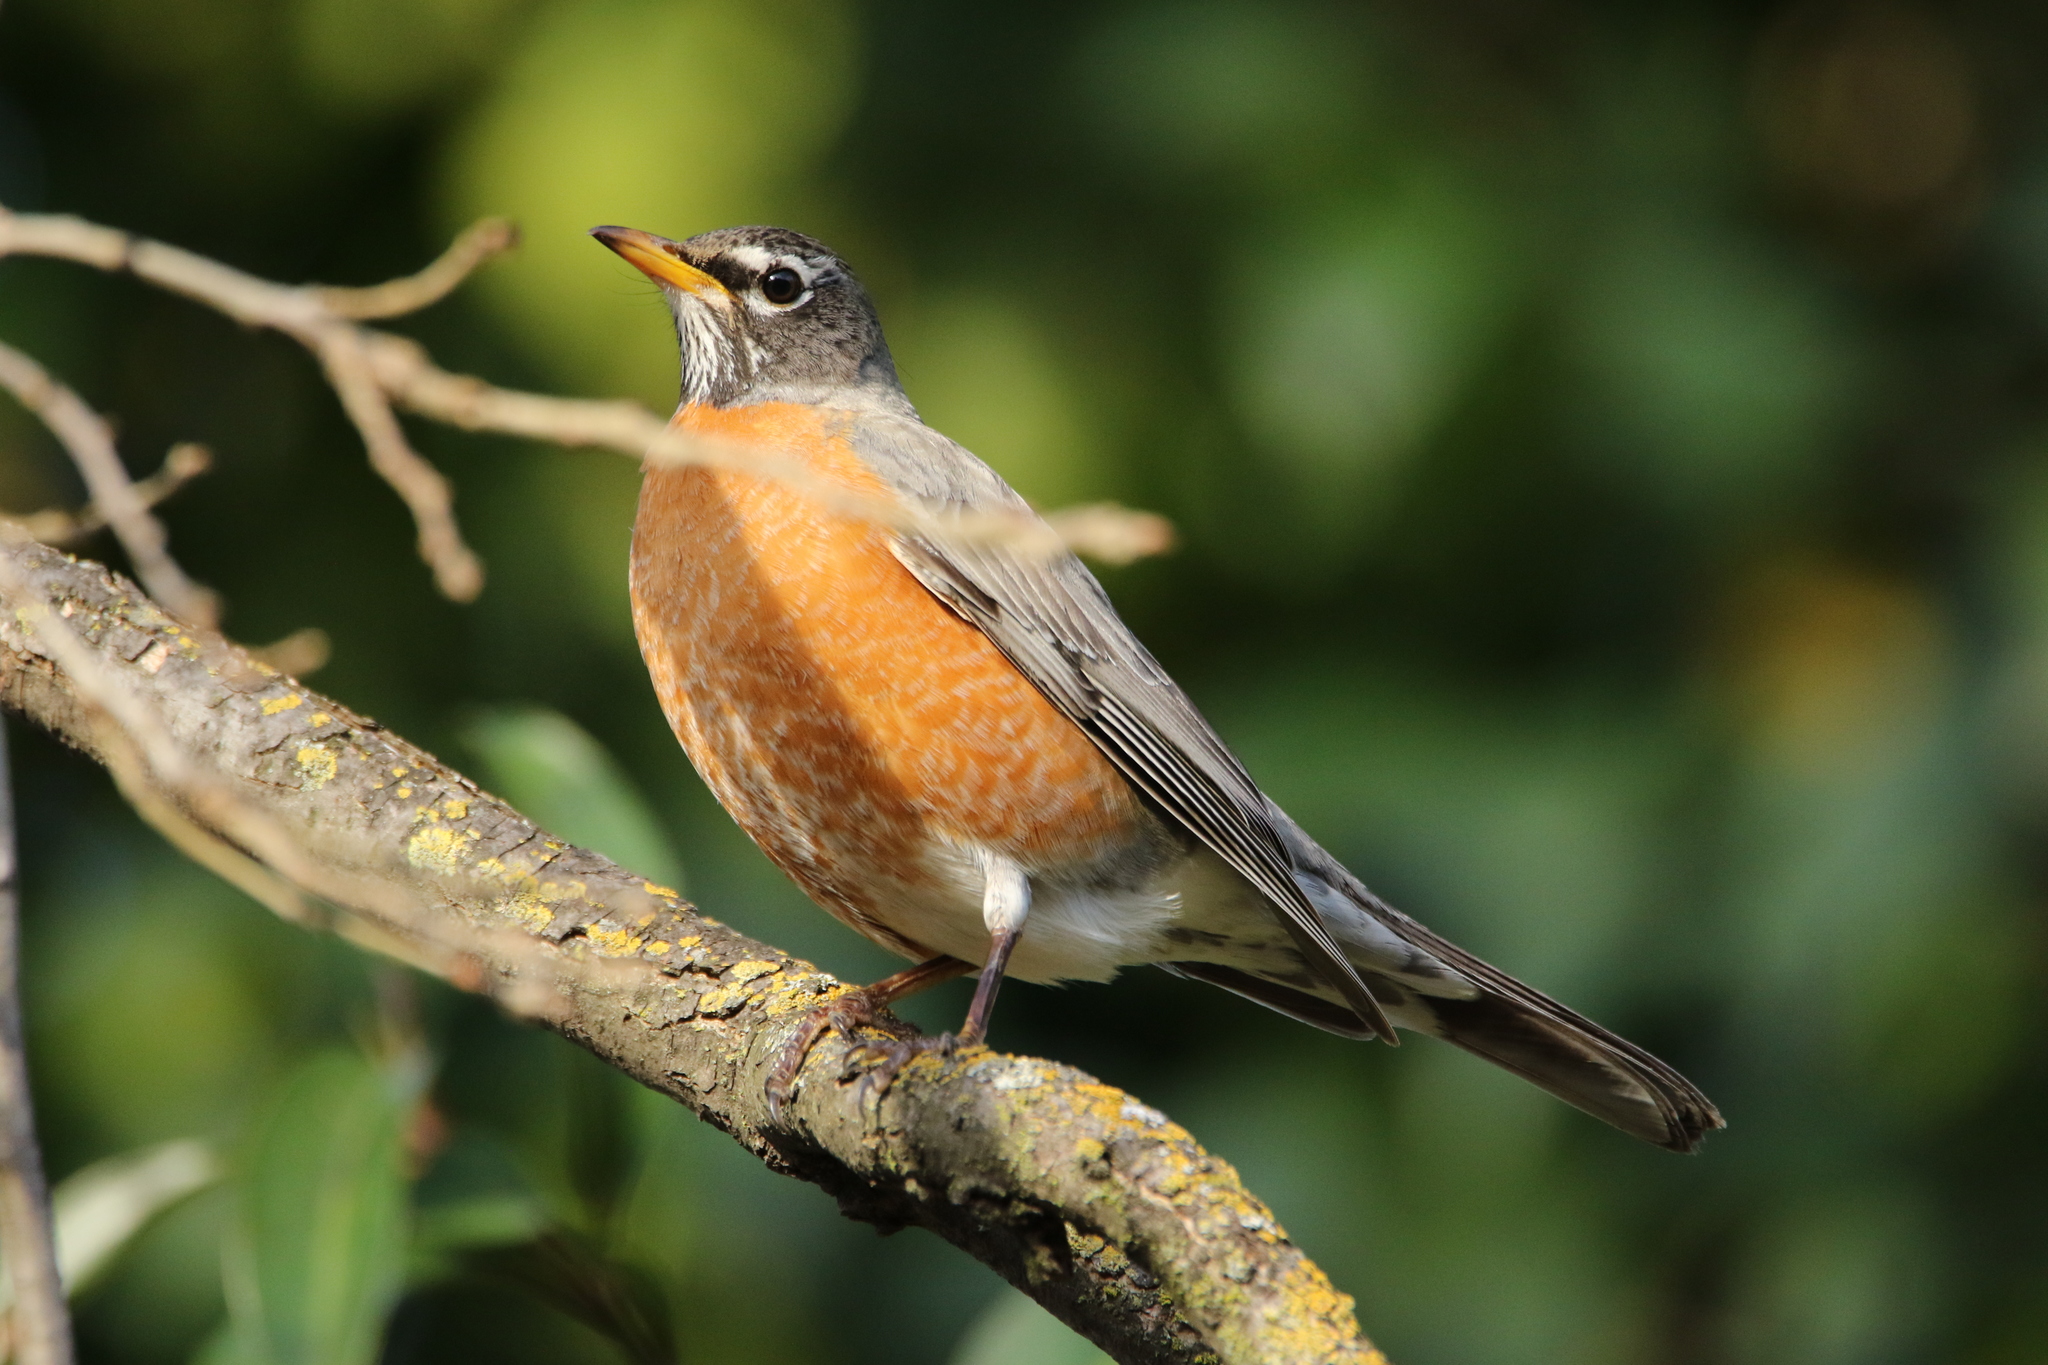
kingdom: Animalia
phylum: Chordata
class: Aves
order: Passeriformes
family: Turdidae
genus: Turdus
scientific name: Turdus migratorius
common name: American robin
